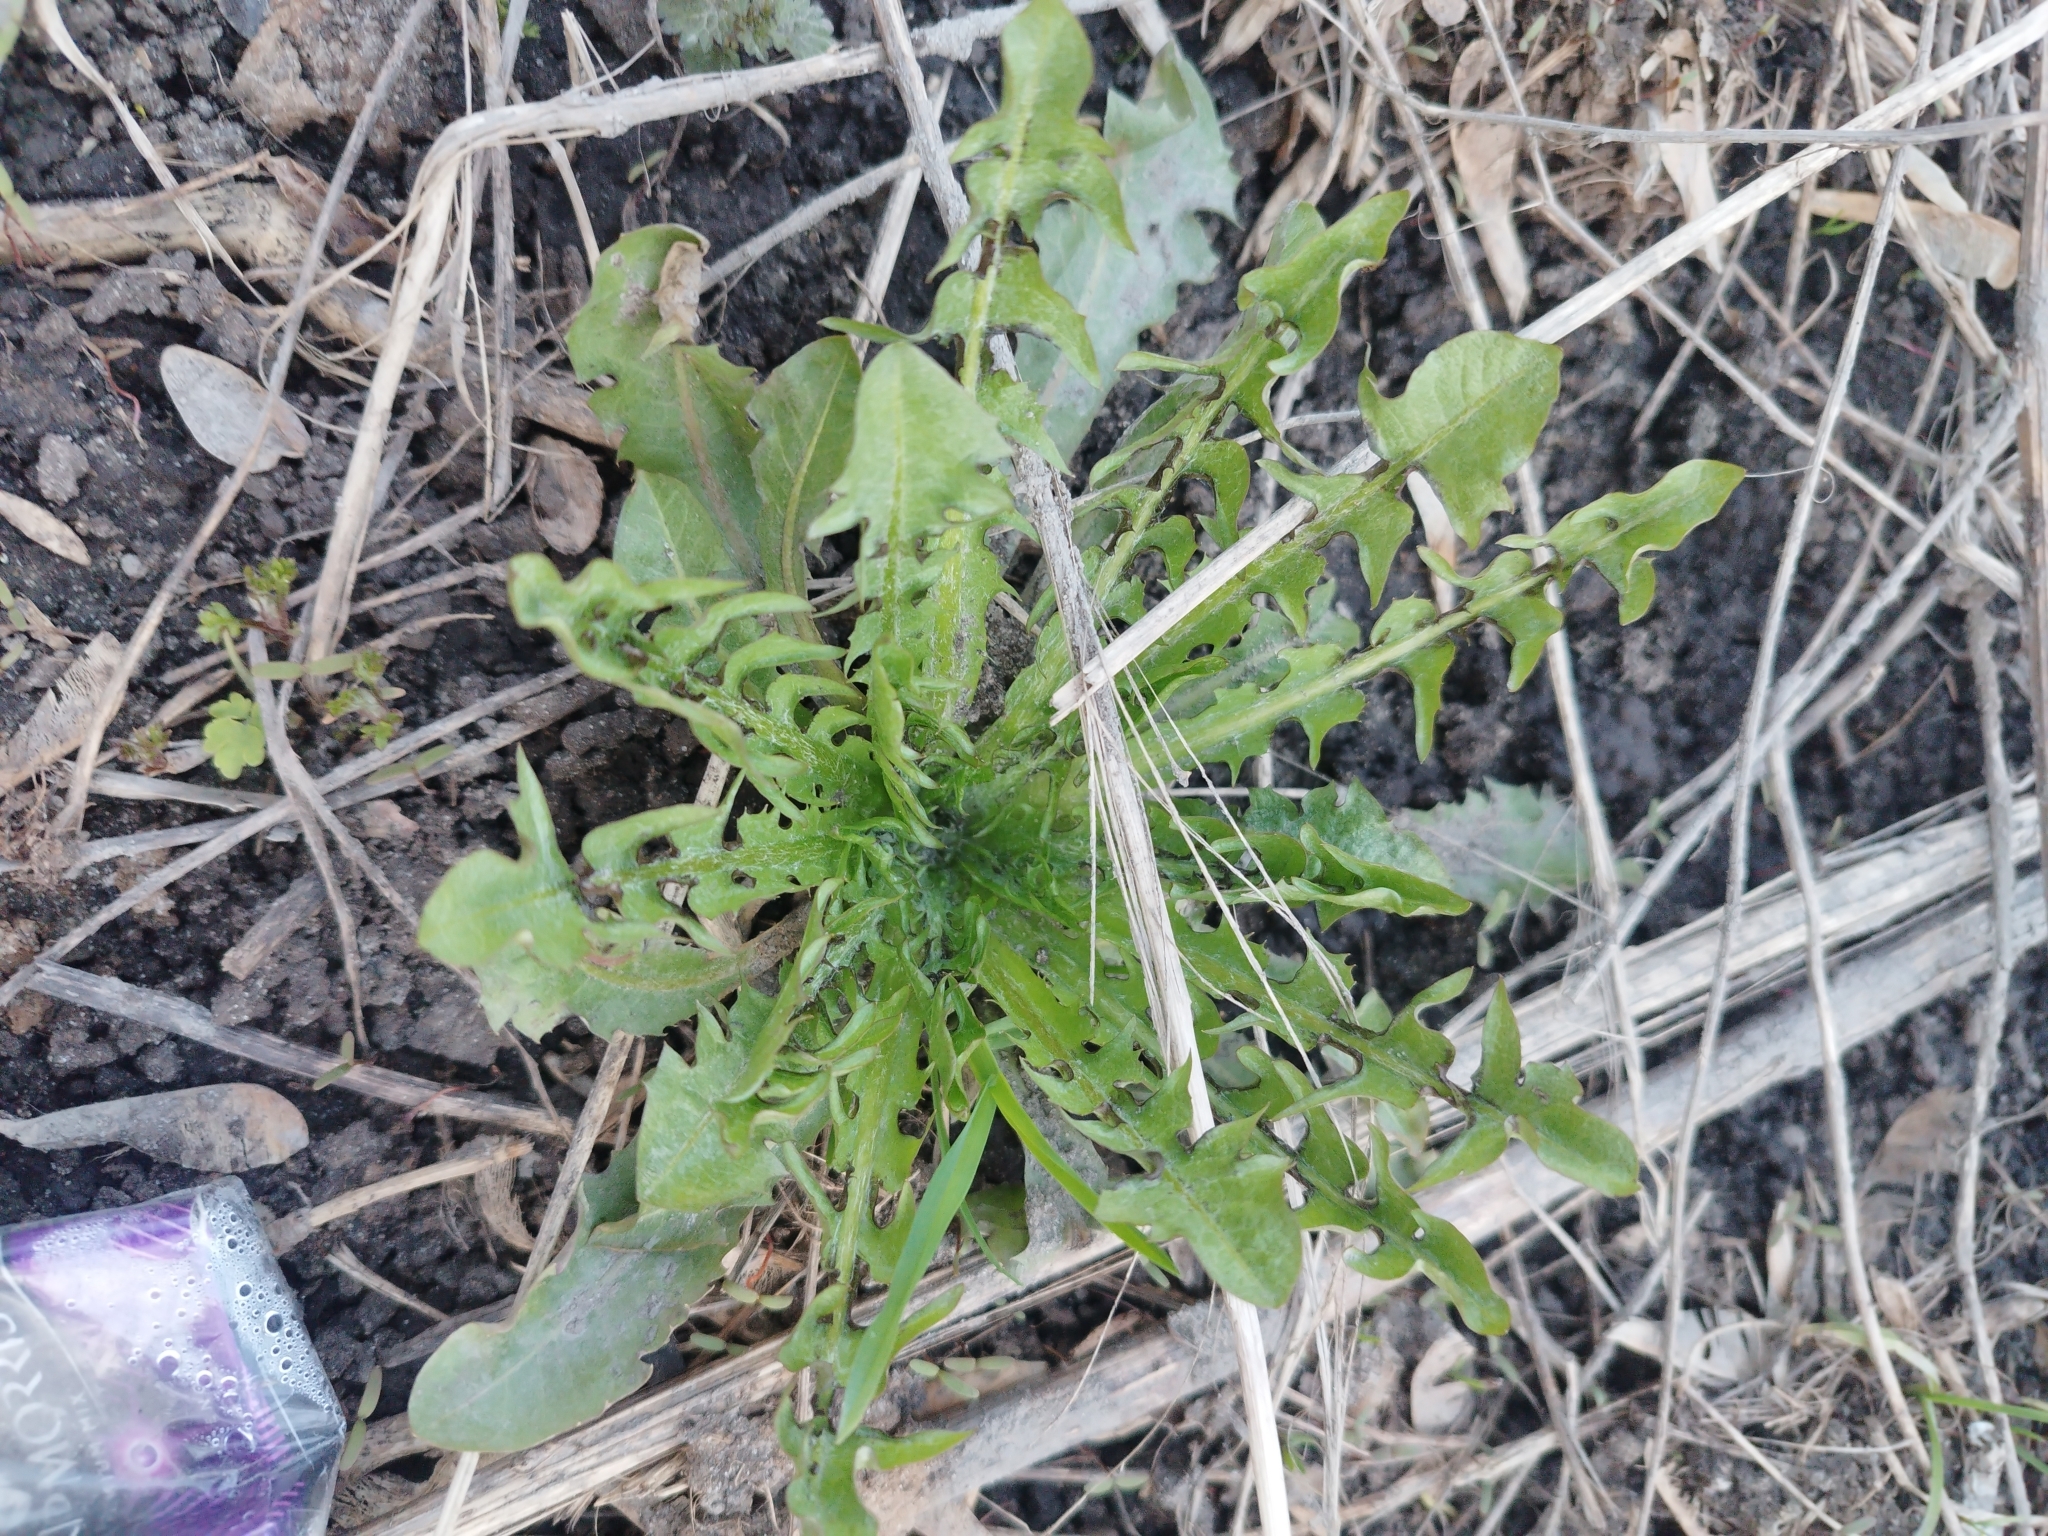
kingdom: Plantae
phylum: Tracheophyta
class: Magnoliopsida
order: Asterales
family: Asteraceae
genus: Taraxacum
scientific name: Taraxacum officinale
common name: Common dandelion
